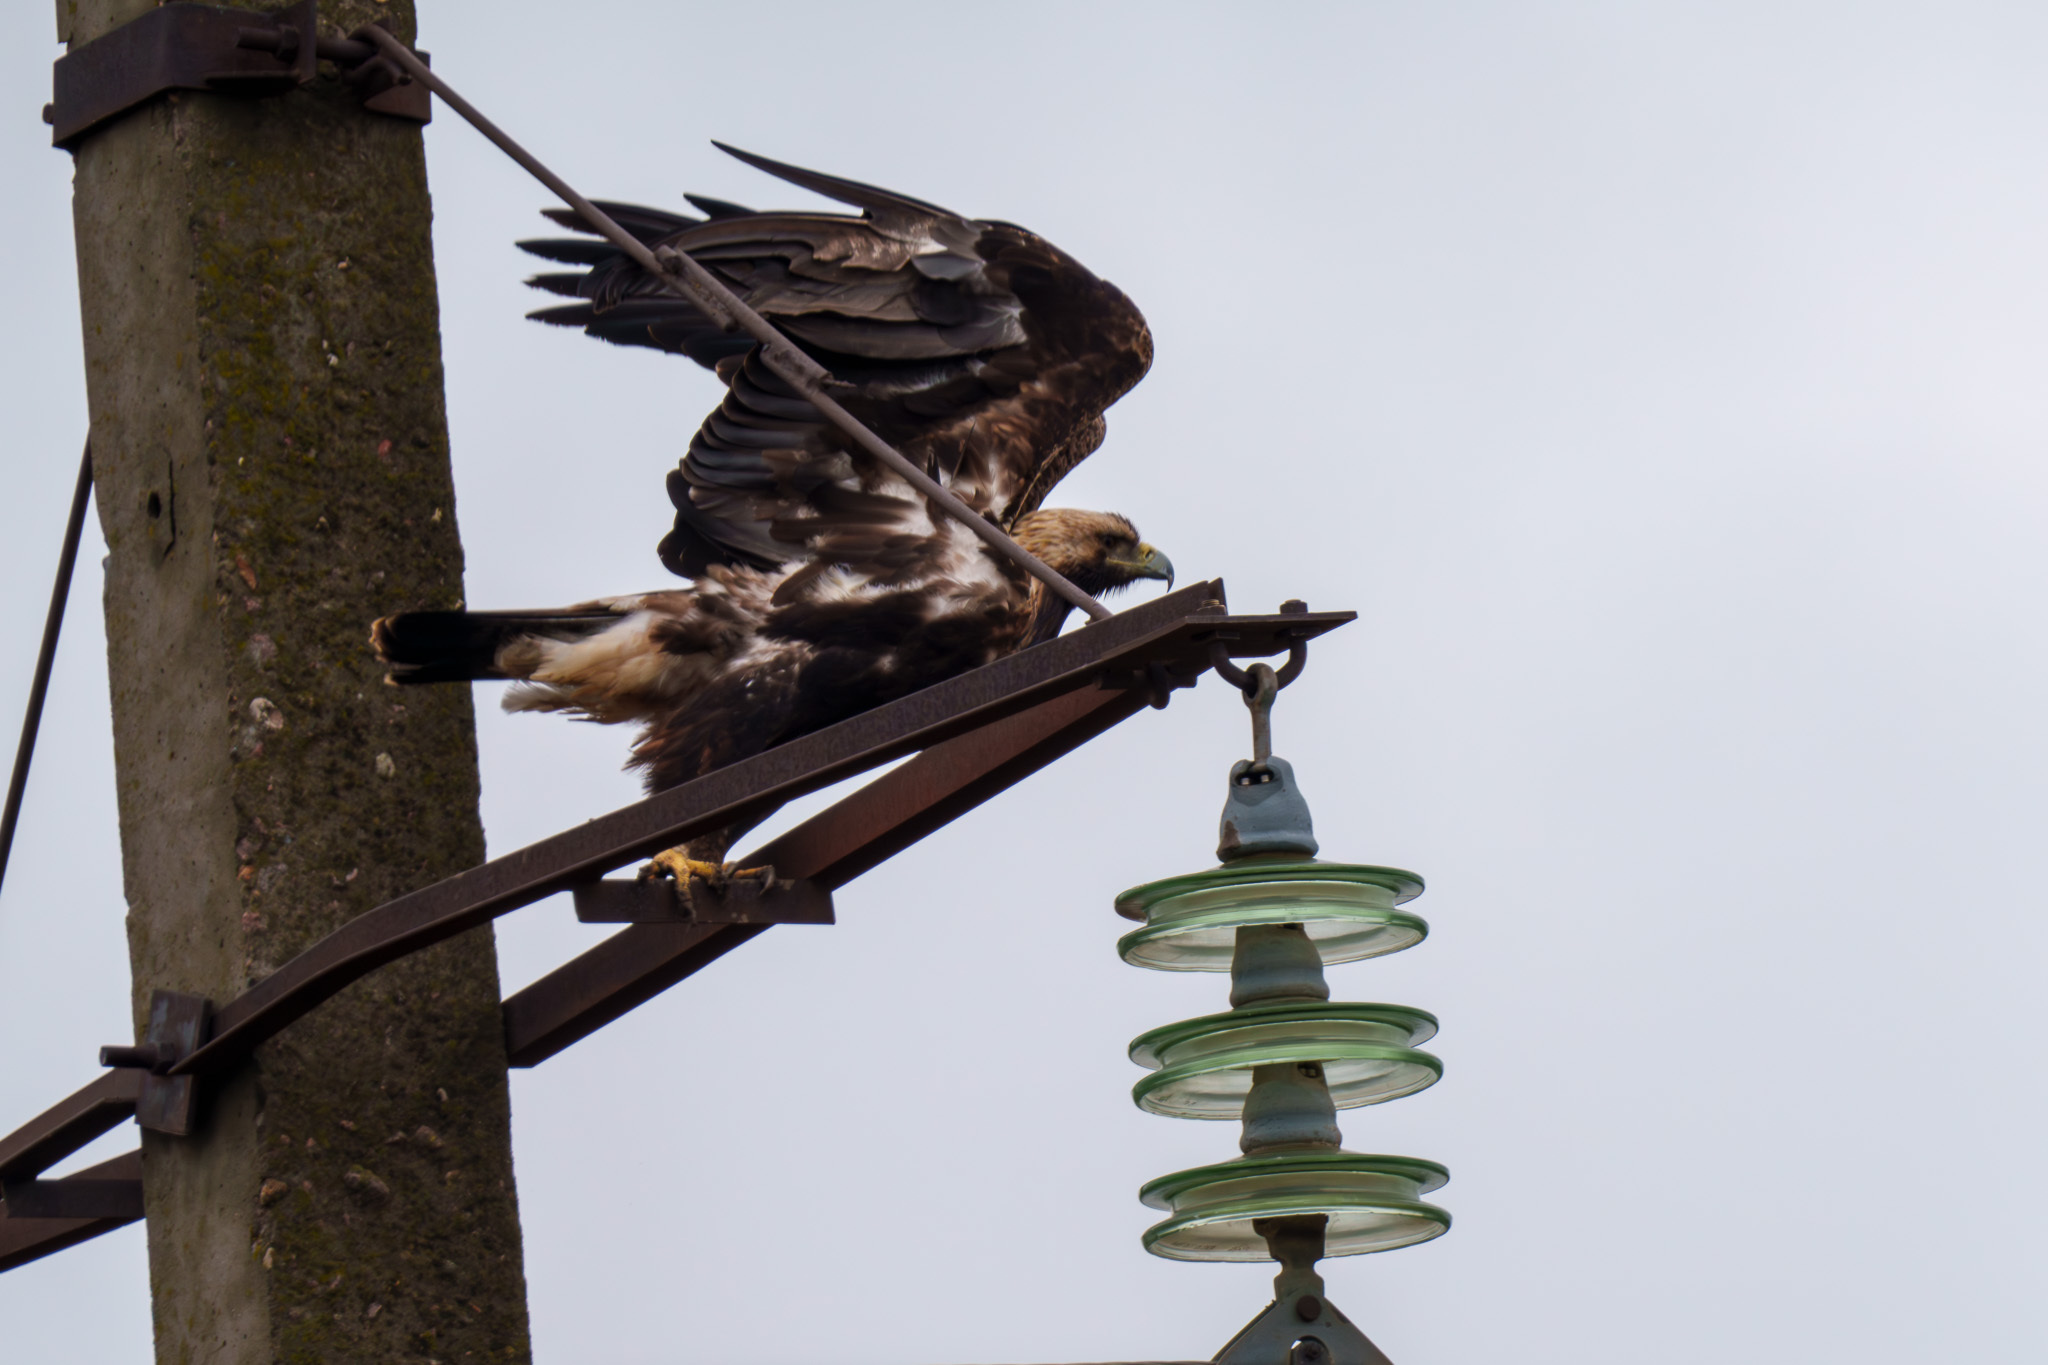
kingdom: Animalia
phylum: Chordata
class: Aves
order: Accipitriformes
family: Accipitridae
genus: Aquila
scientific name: Aquila heliaca
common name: Eastern imperial eagle
